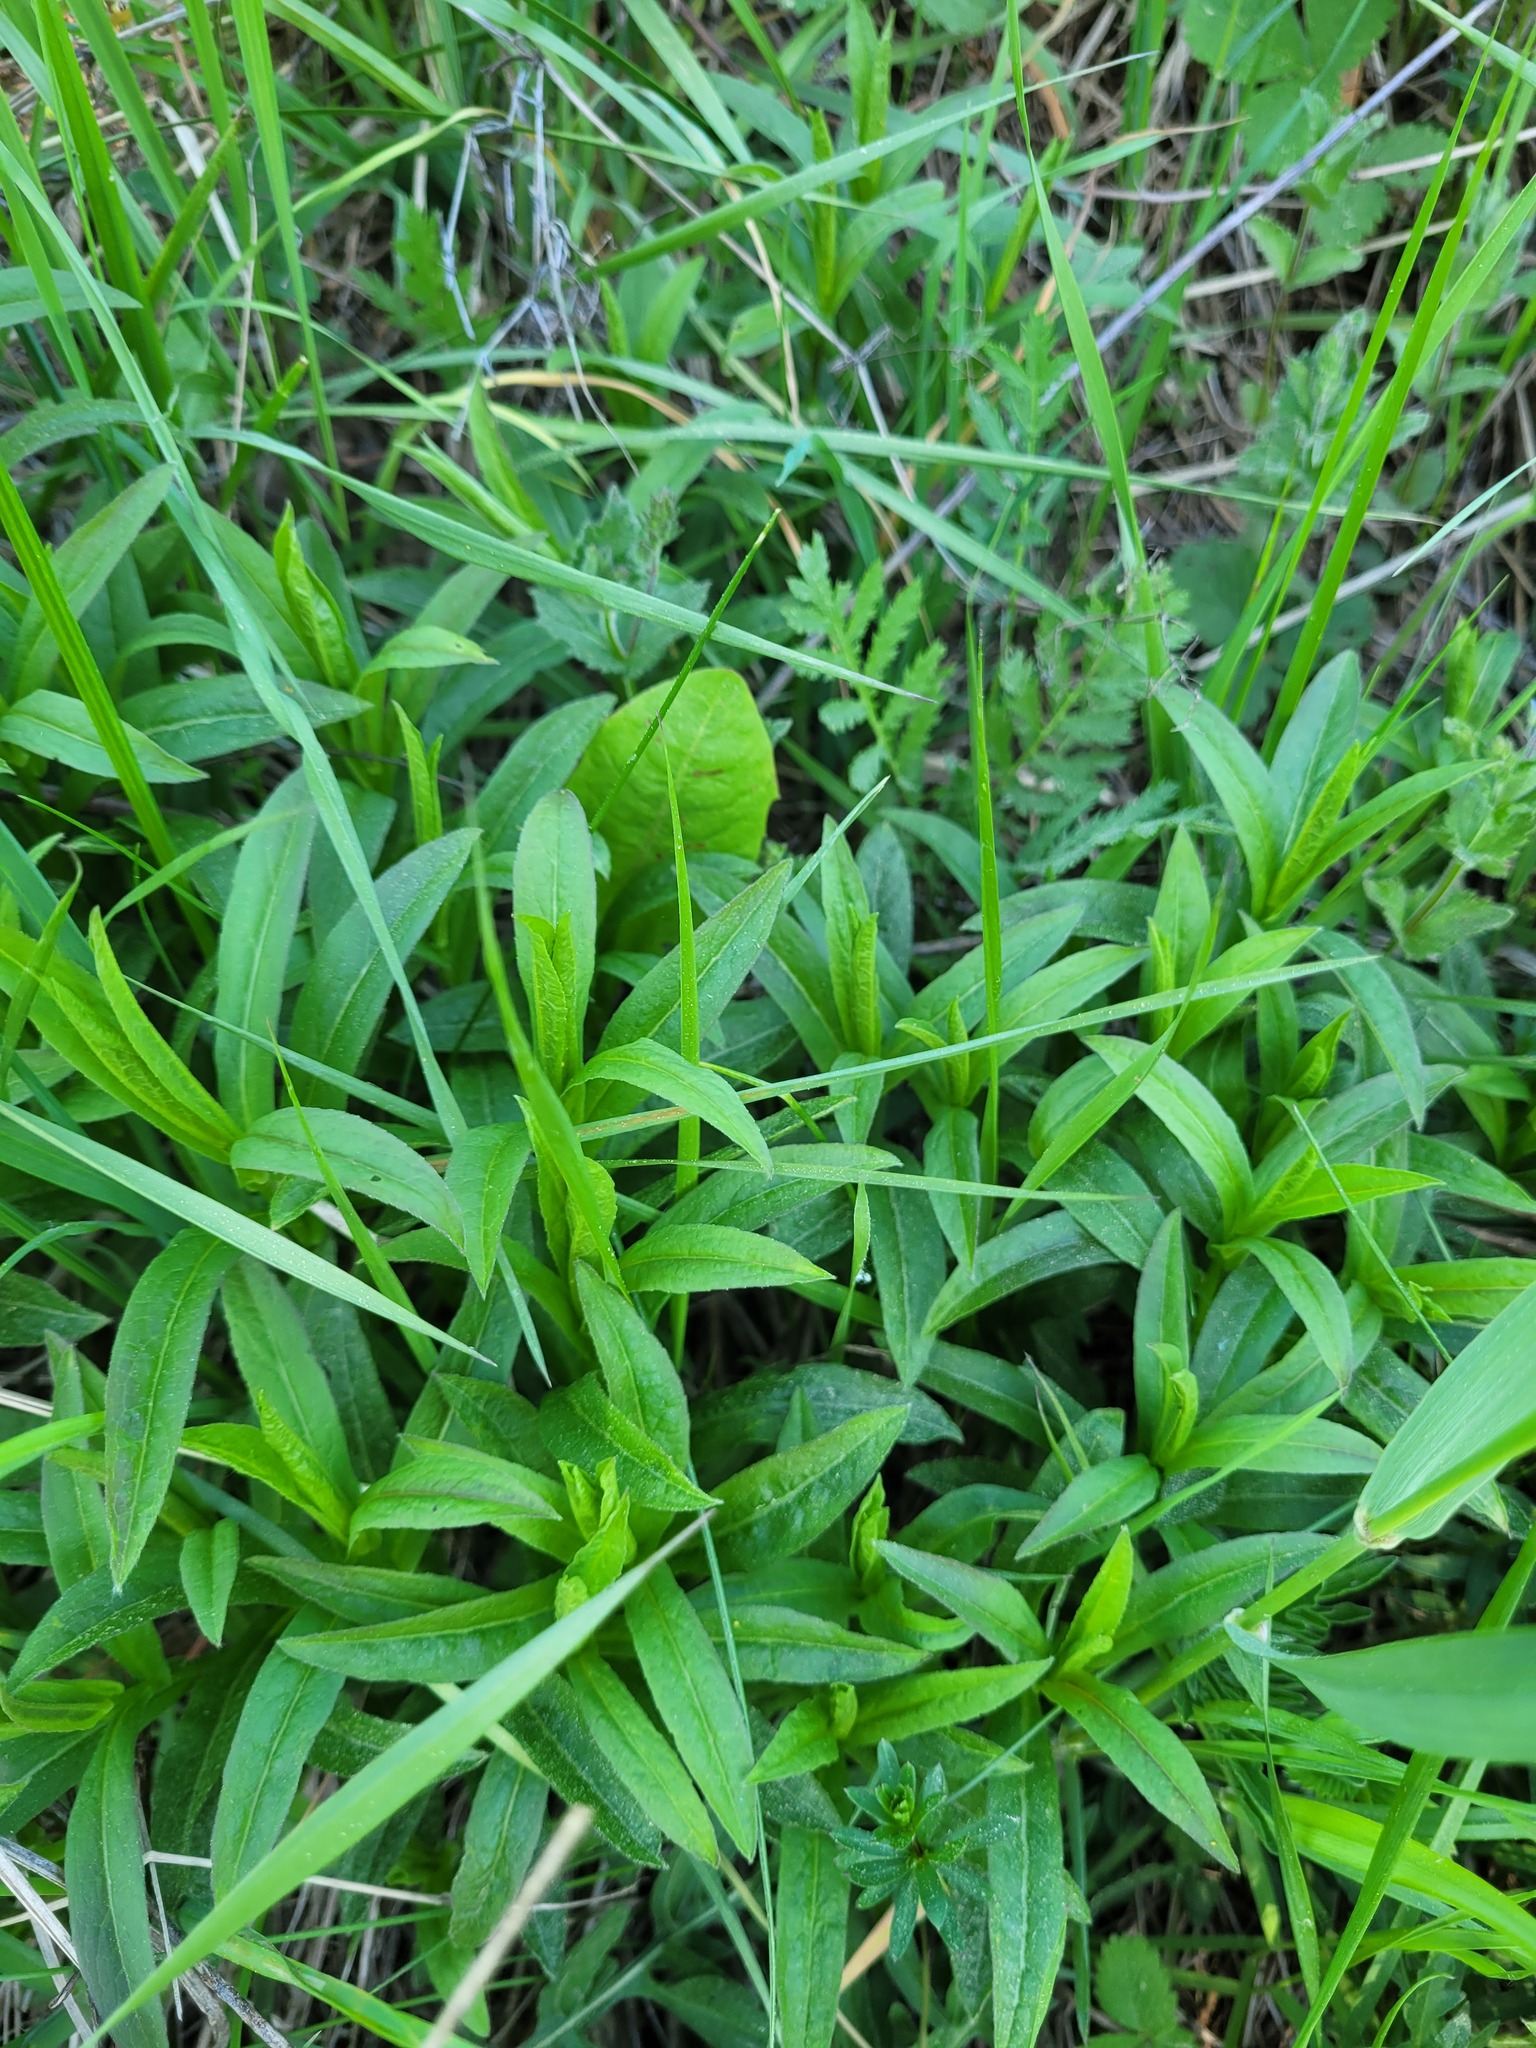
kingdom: Plantae
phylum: Tracheophyta
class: Magnoliopsida
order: Asterales
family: Asteraceae
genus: Pentanema
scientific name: Pentanema salicinum
